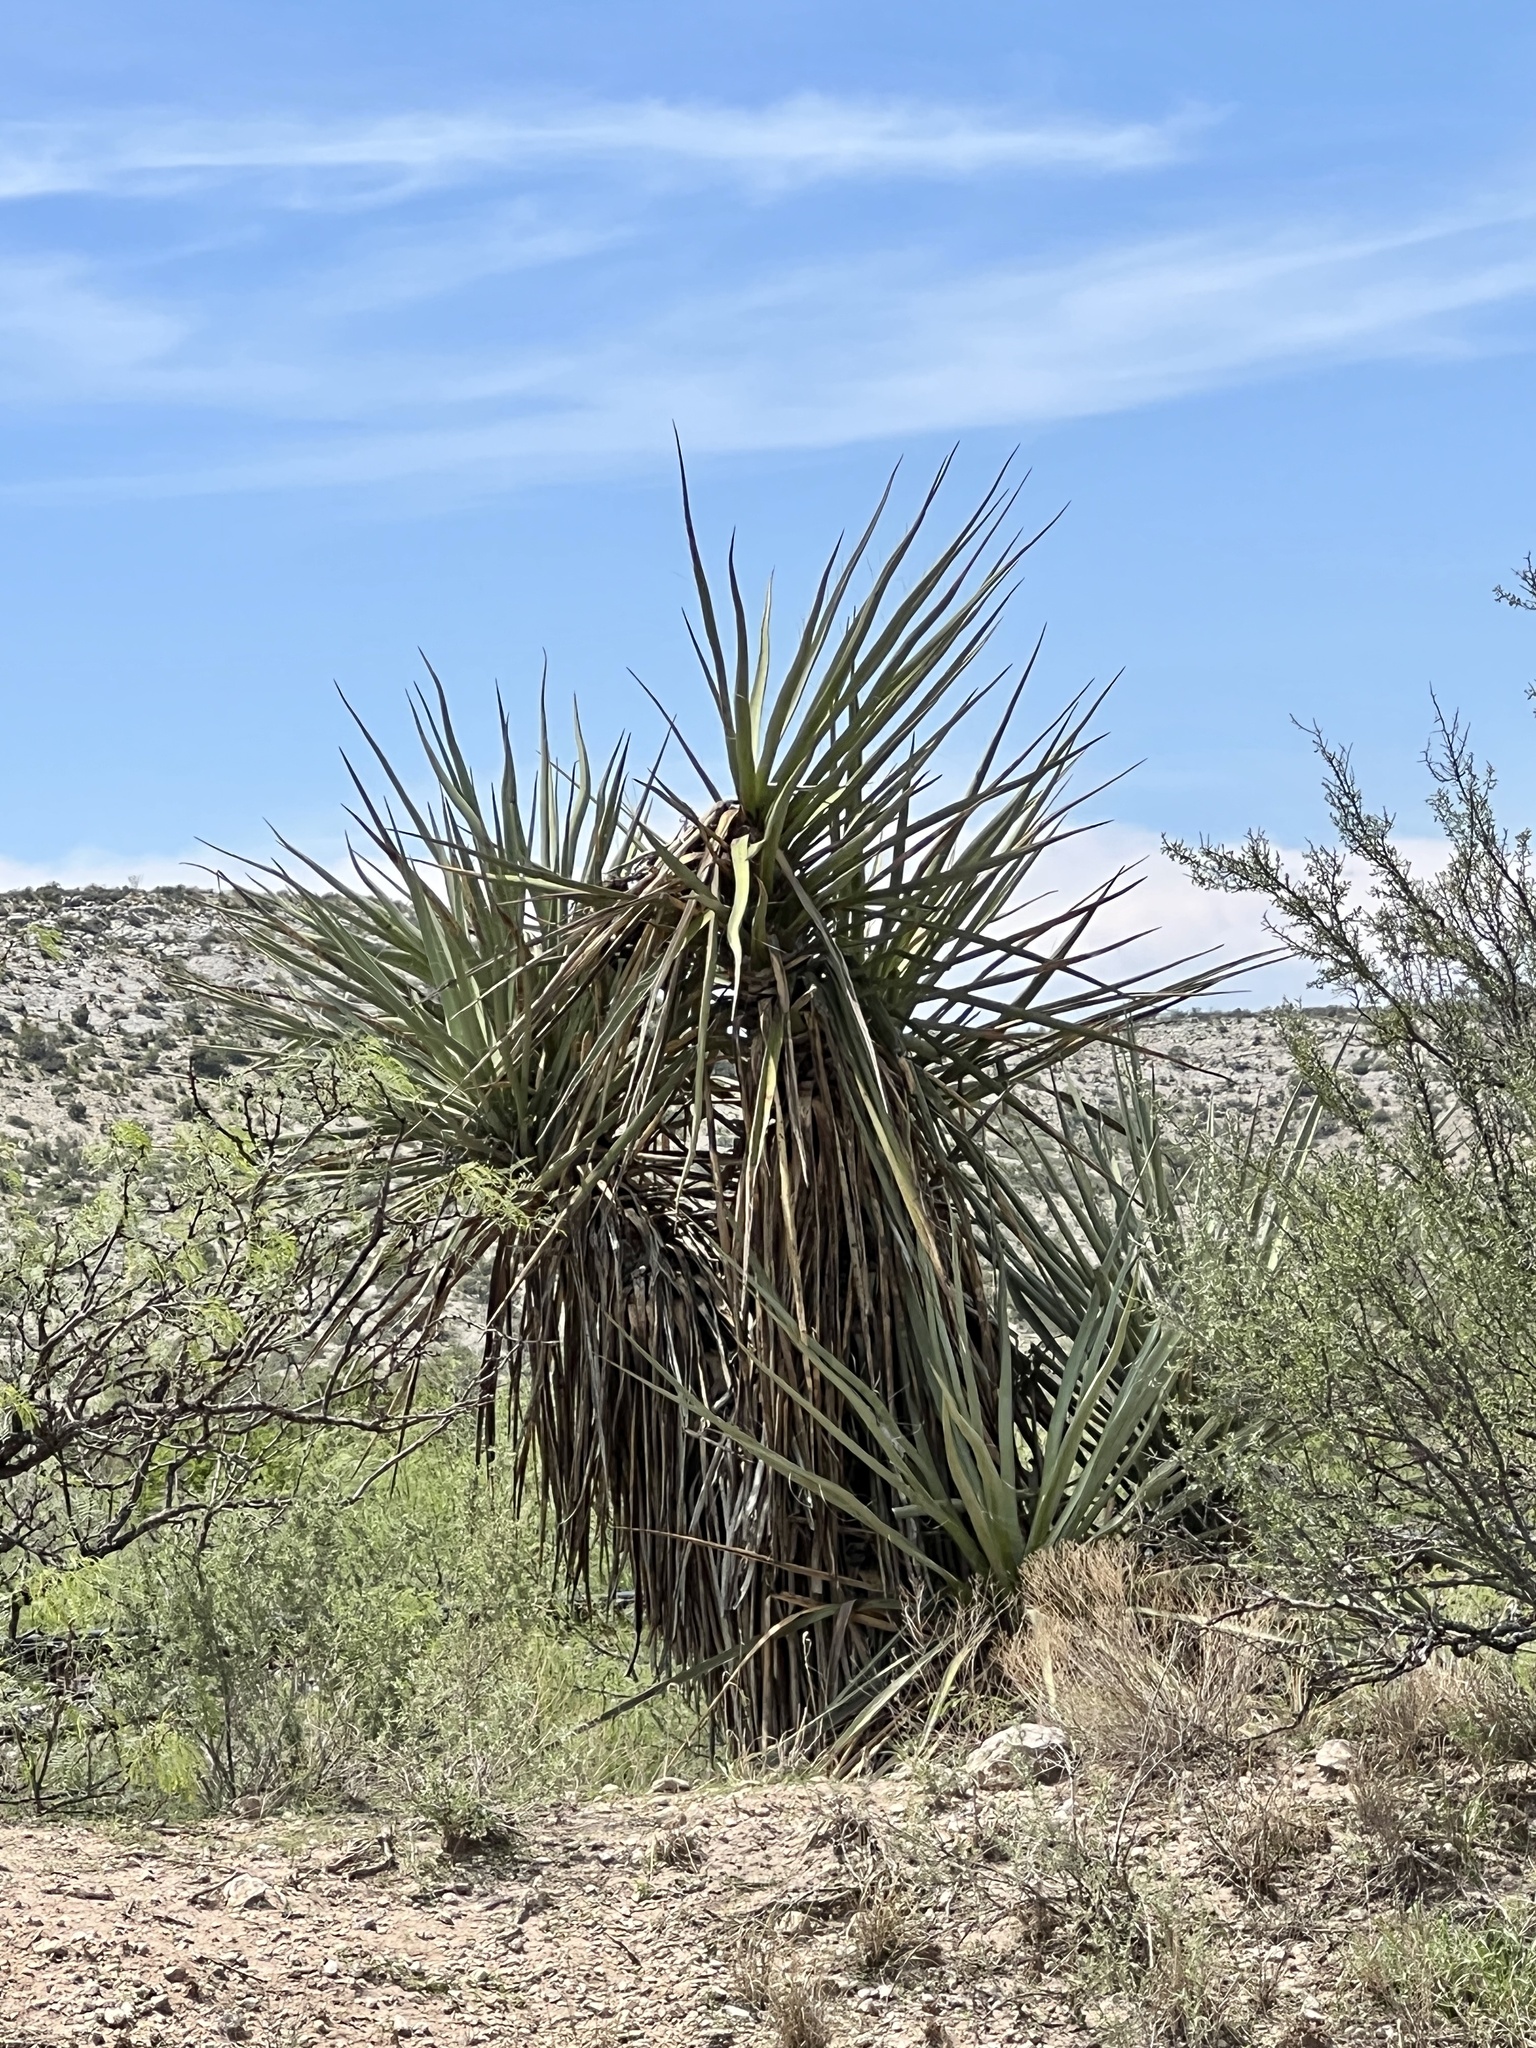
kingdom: Plantae
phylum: Tracheophyta
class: Liliopsida
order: Asparagales
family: Asparagaceae
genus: Yucca
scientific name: Yucca treculiana
